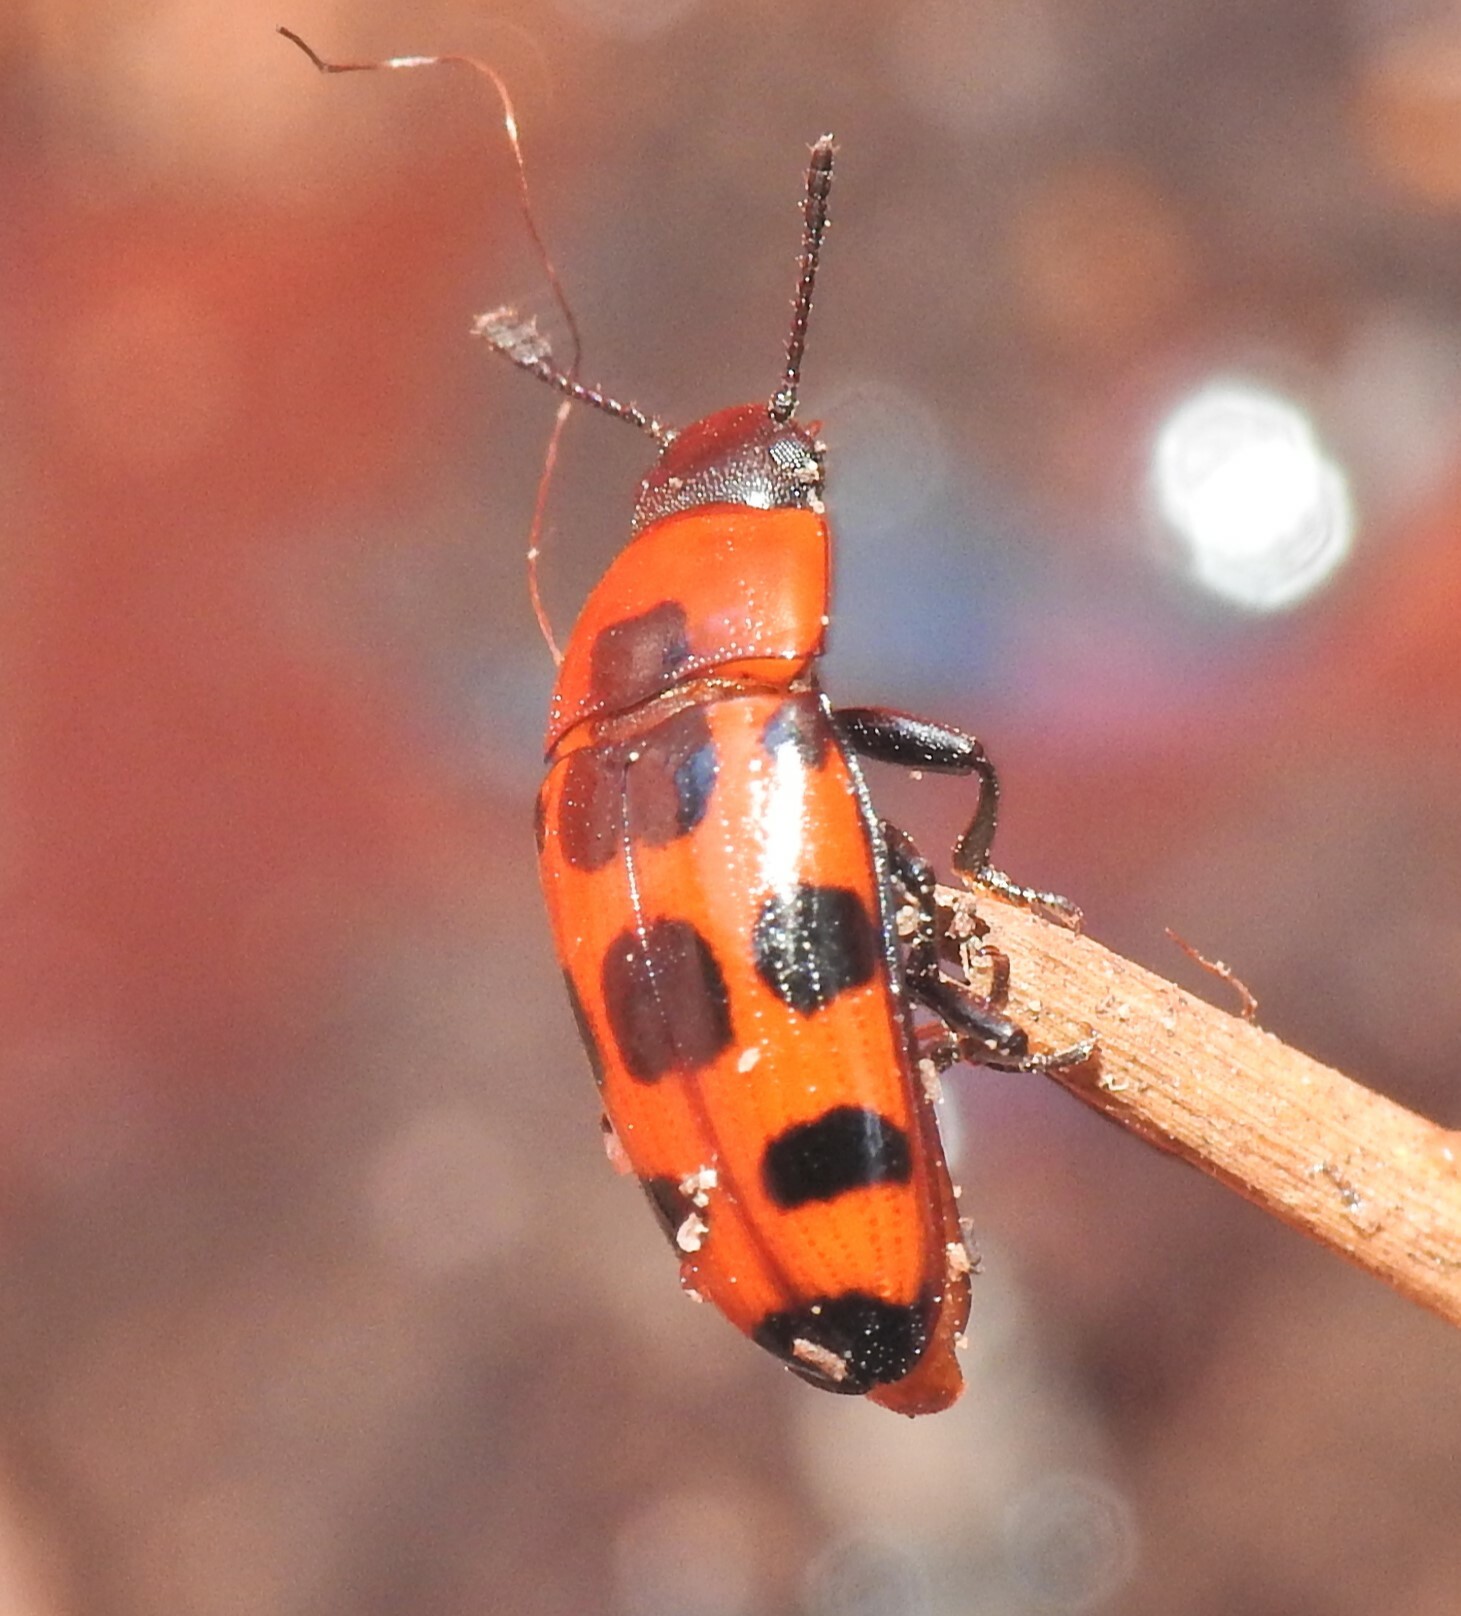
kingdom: Animalia
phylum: Arthropoda
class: Insecta
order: Coleoptera
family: Erotylidae
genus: Episcaphula
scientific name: Episcaphula australis
